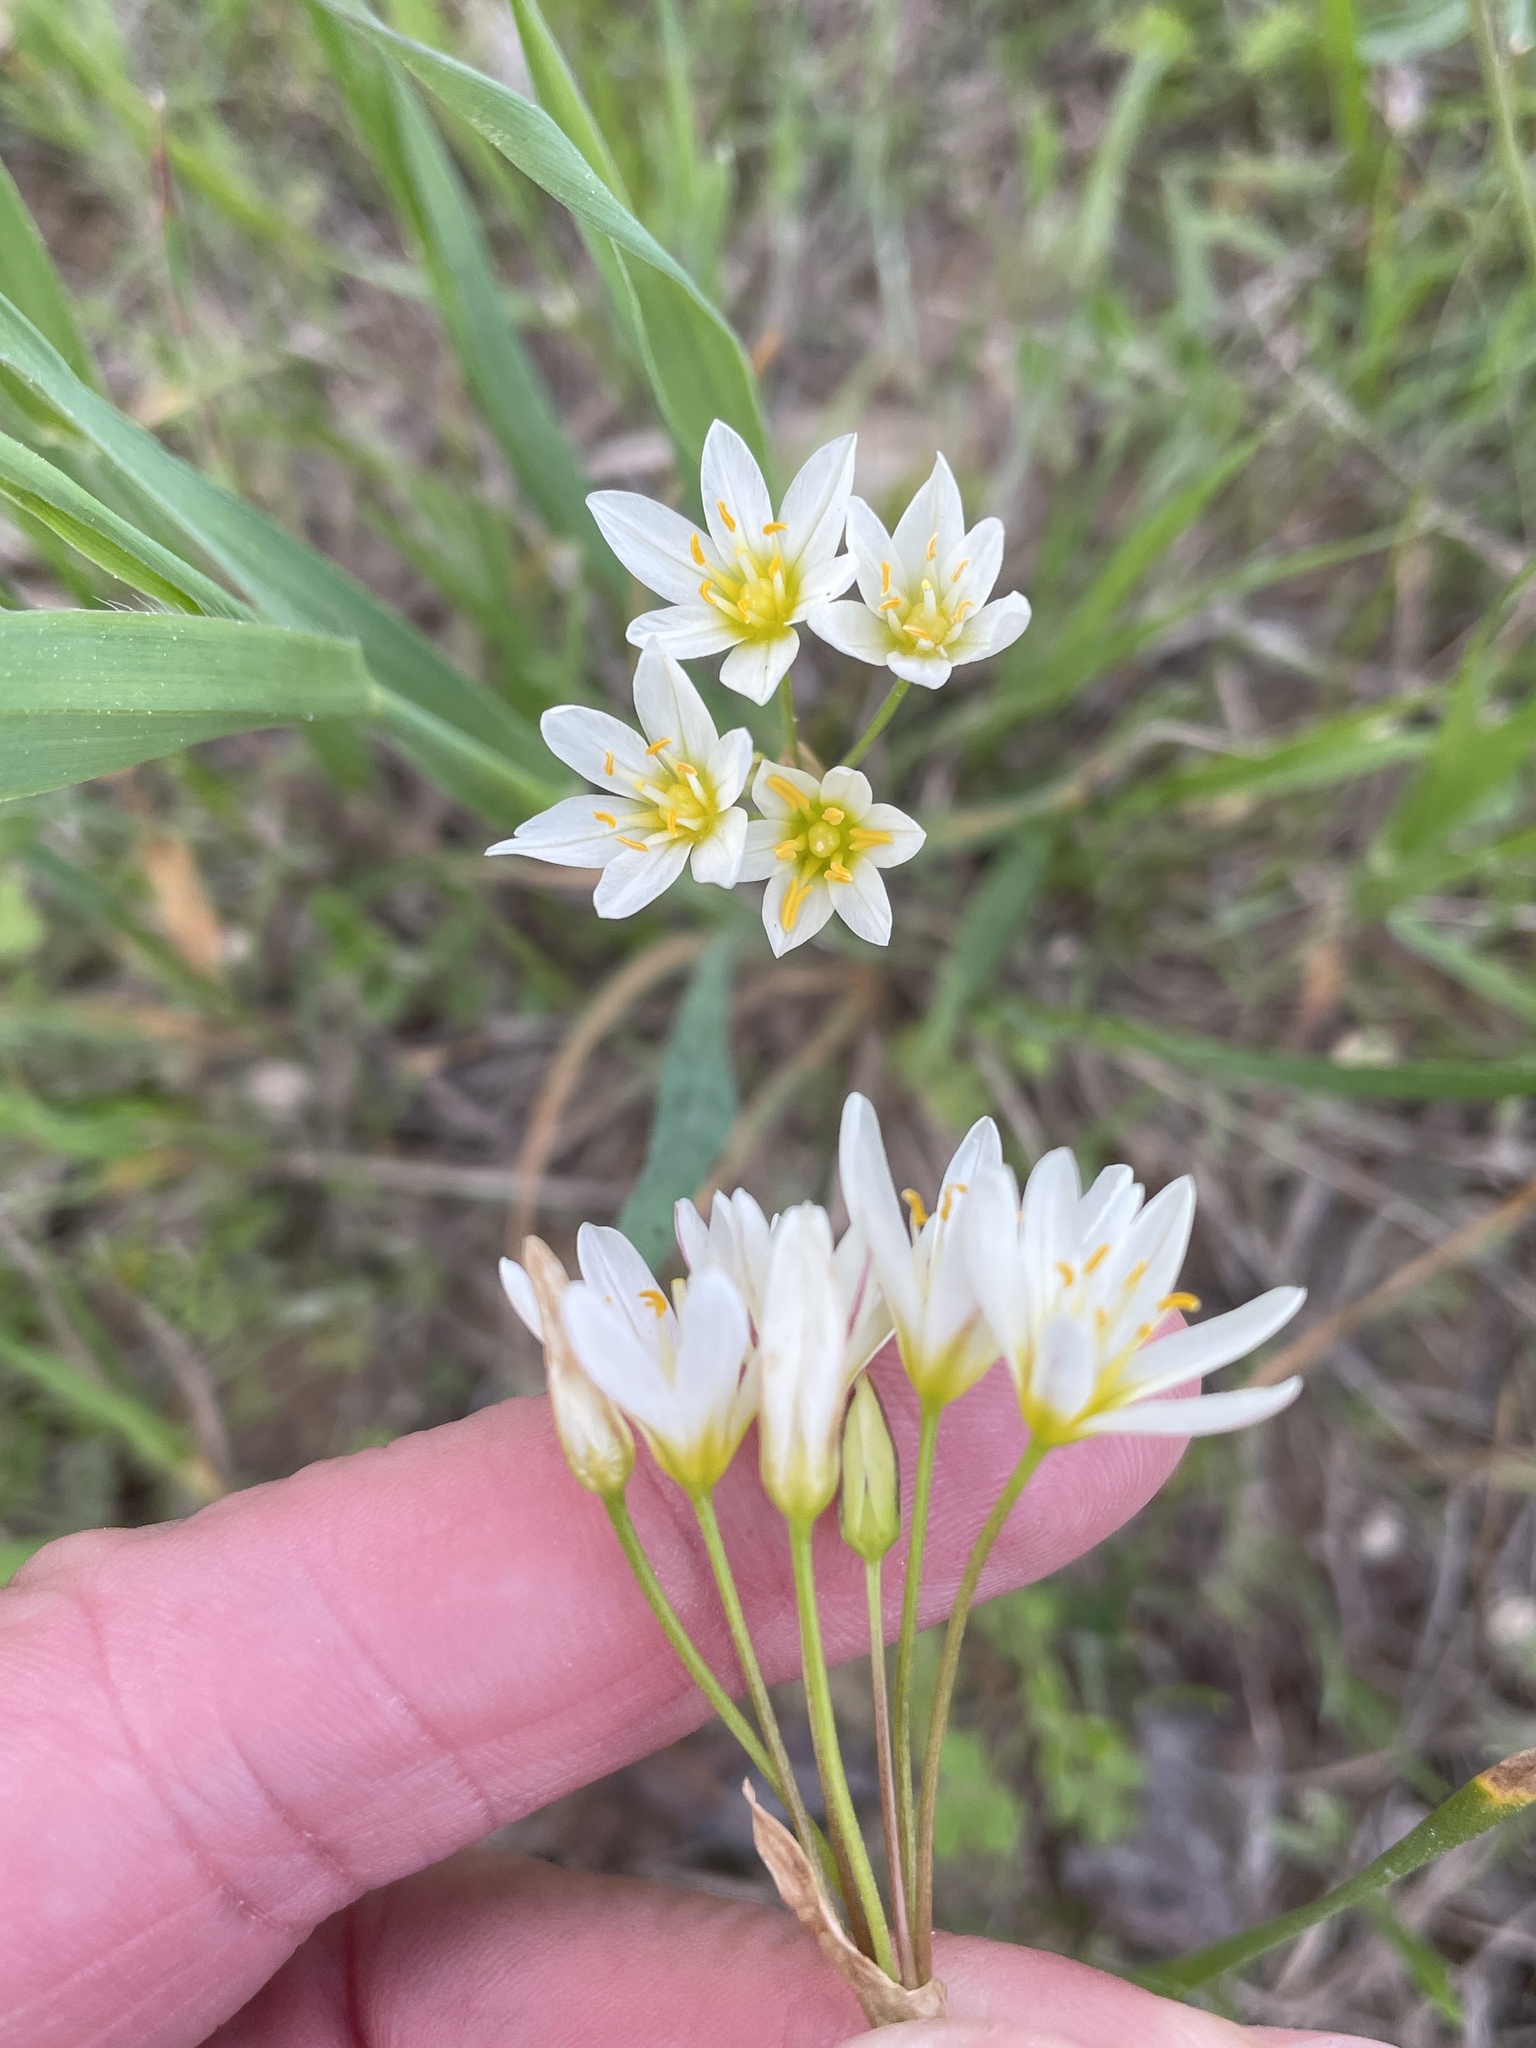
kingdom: Plantae
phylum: Tracheophyta
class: Liliopsida
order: Asparagales
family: Amaryllidaceae
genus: Nothoscordum
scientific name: Nothoscordum bivalve
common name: Crow-poison
